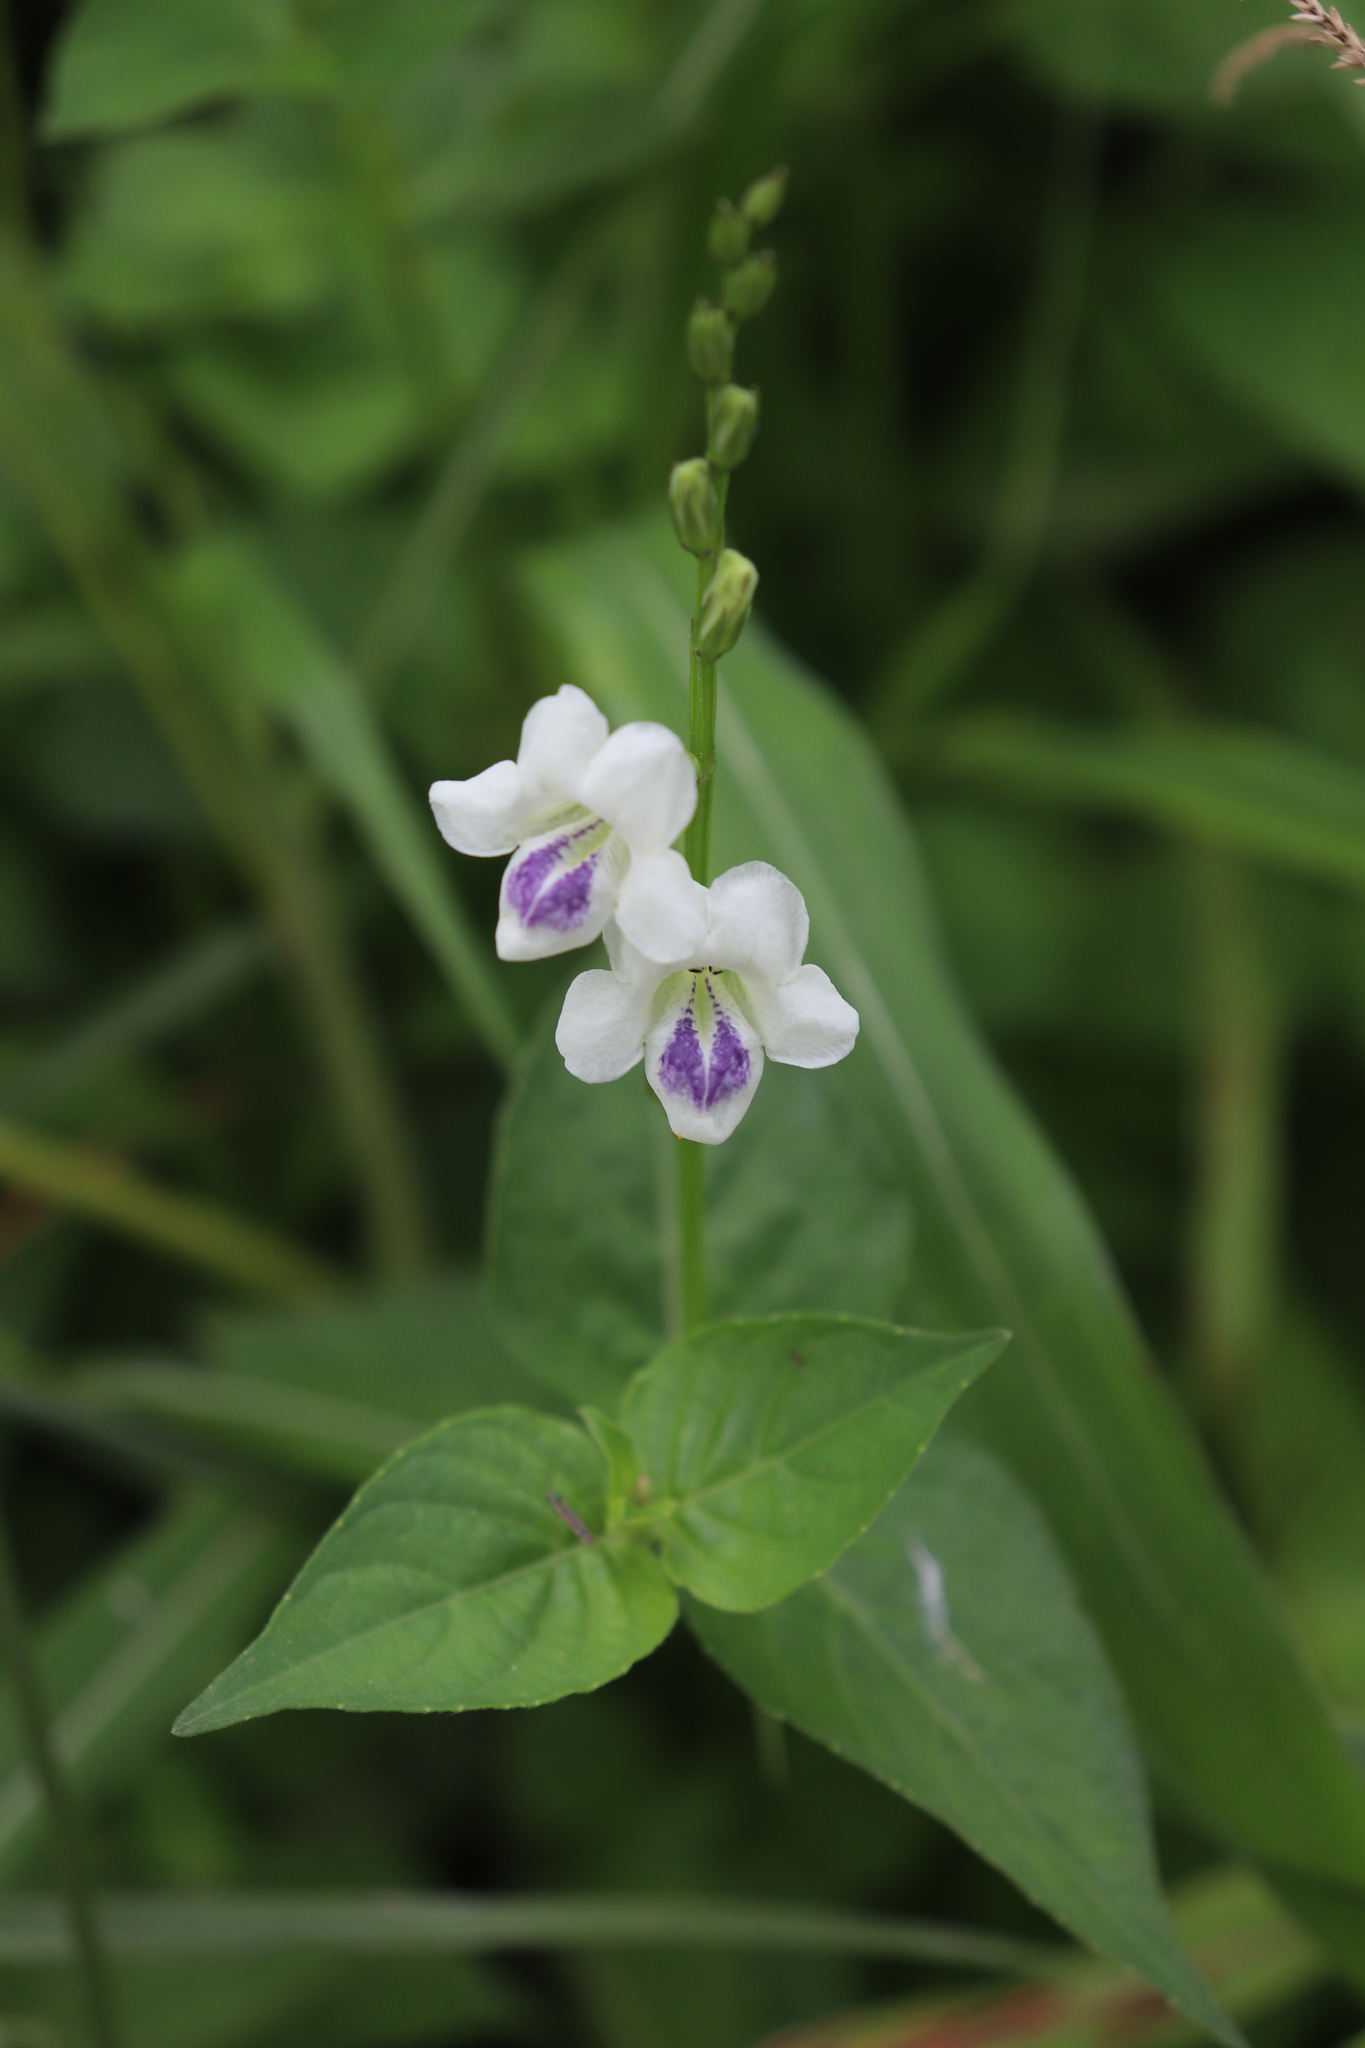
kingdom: Plantae
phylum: Tracheophyta
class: Magnoliopsida
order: Lamiales
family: Acanthaceae
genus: Asystasia
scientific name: Asystasia intrusa
